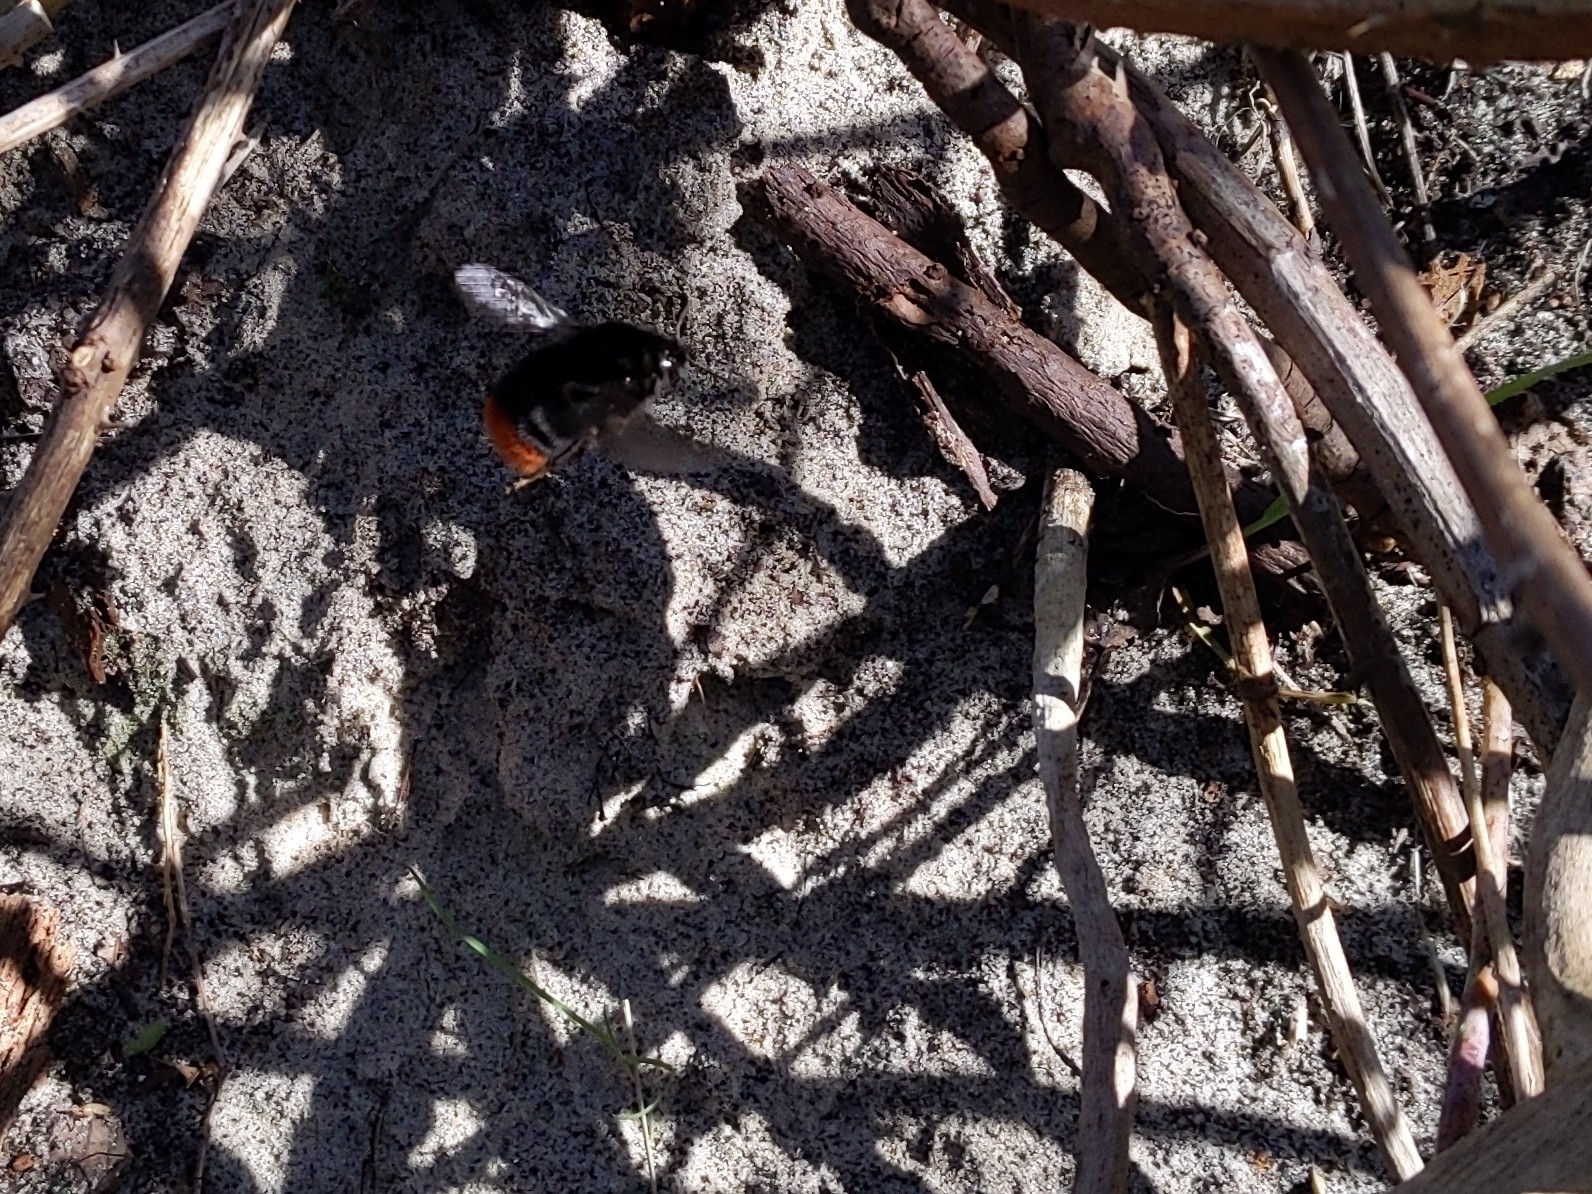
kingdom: Animalia
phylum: Arthropoda
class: Insecta
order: Hymenoptera
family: Apidae
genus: Bombus
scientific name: Bombus lapidarius
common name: Large red-tailed humble-bee
